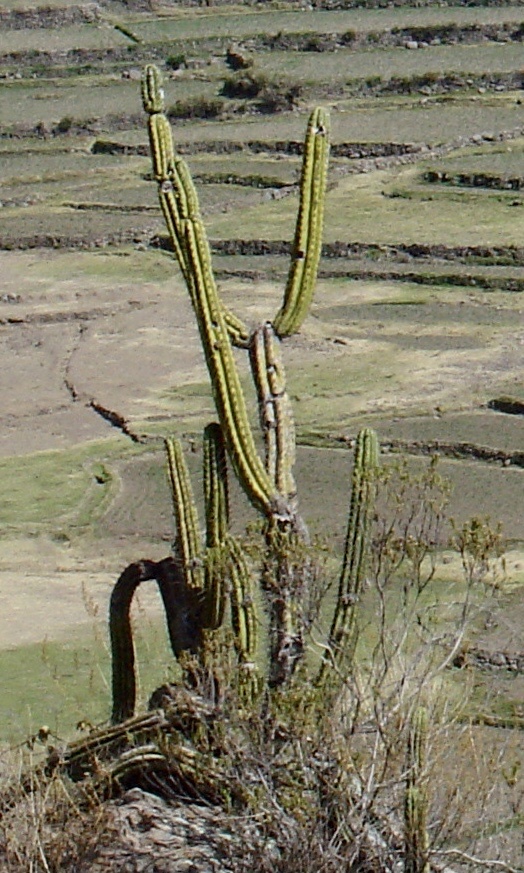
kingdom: Plantae
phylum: Tracheophyta
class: Magnoliopsida
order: Caryophyllales
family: Cactaceae
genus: Corryocactus
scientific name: Corryocactus brevistylus
